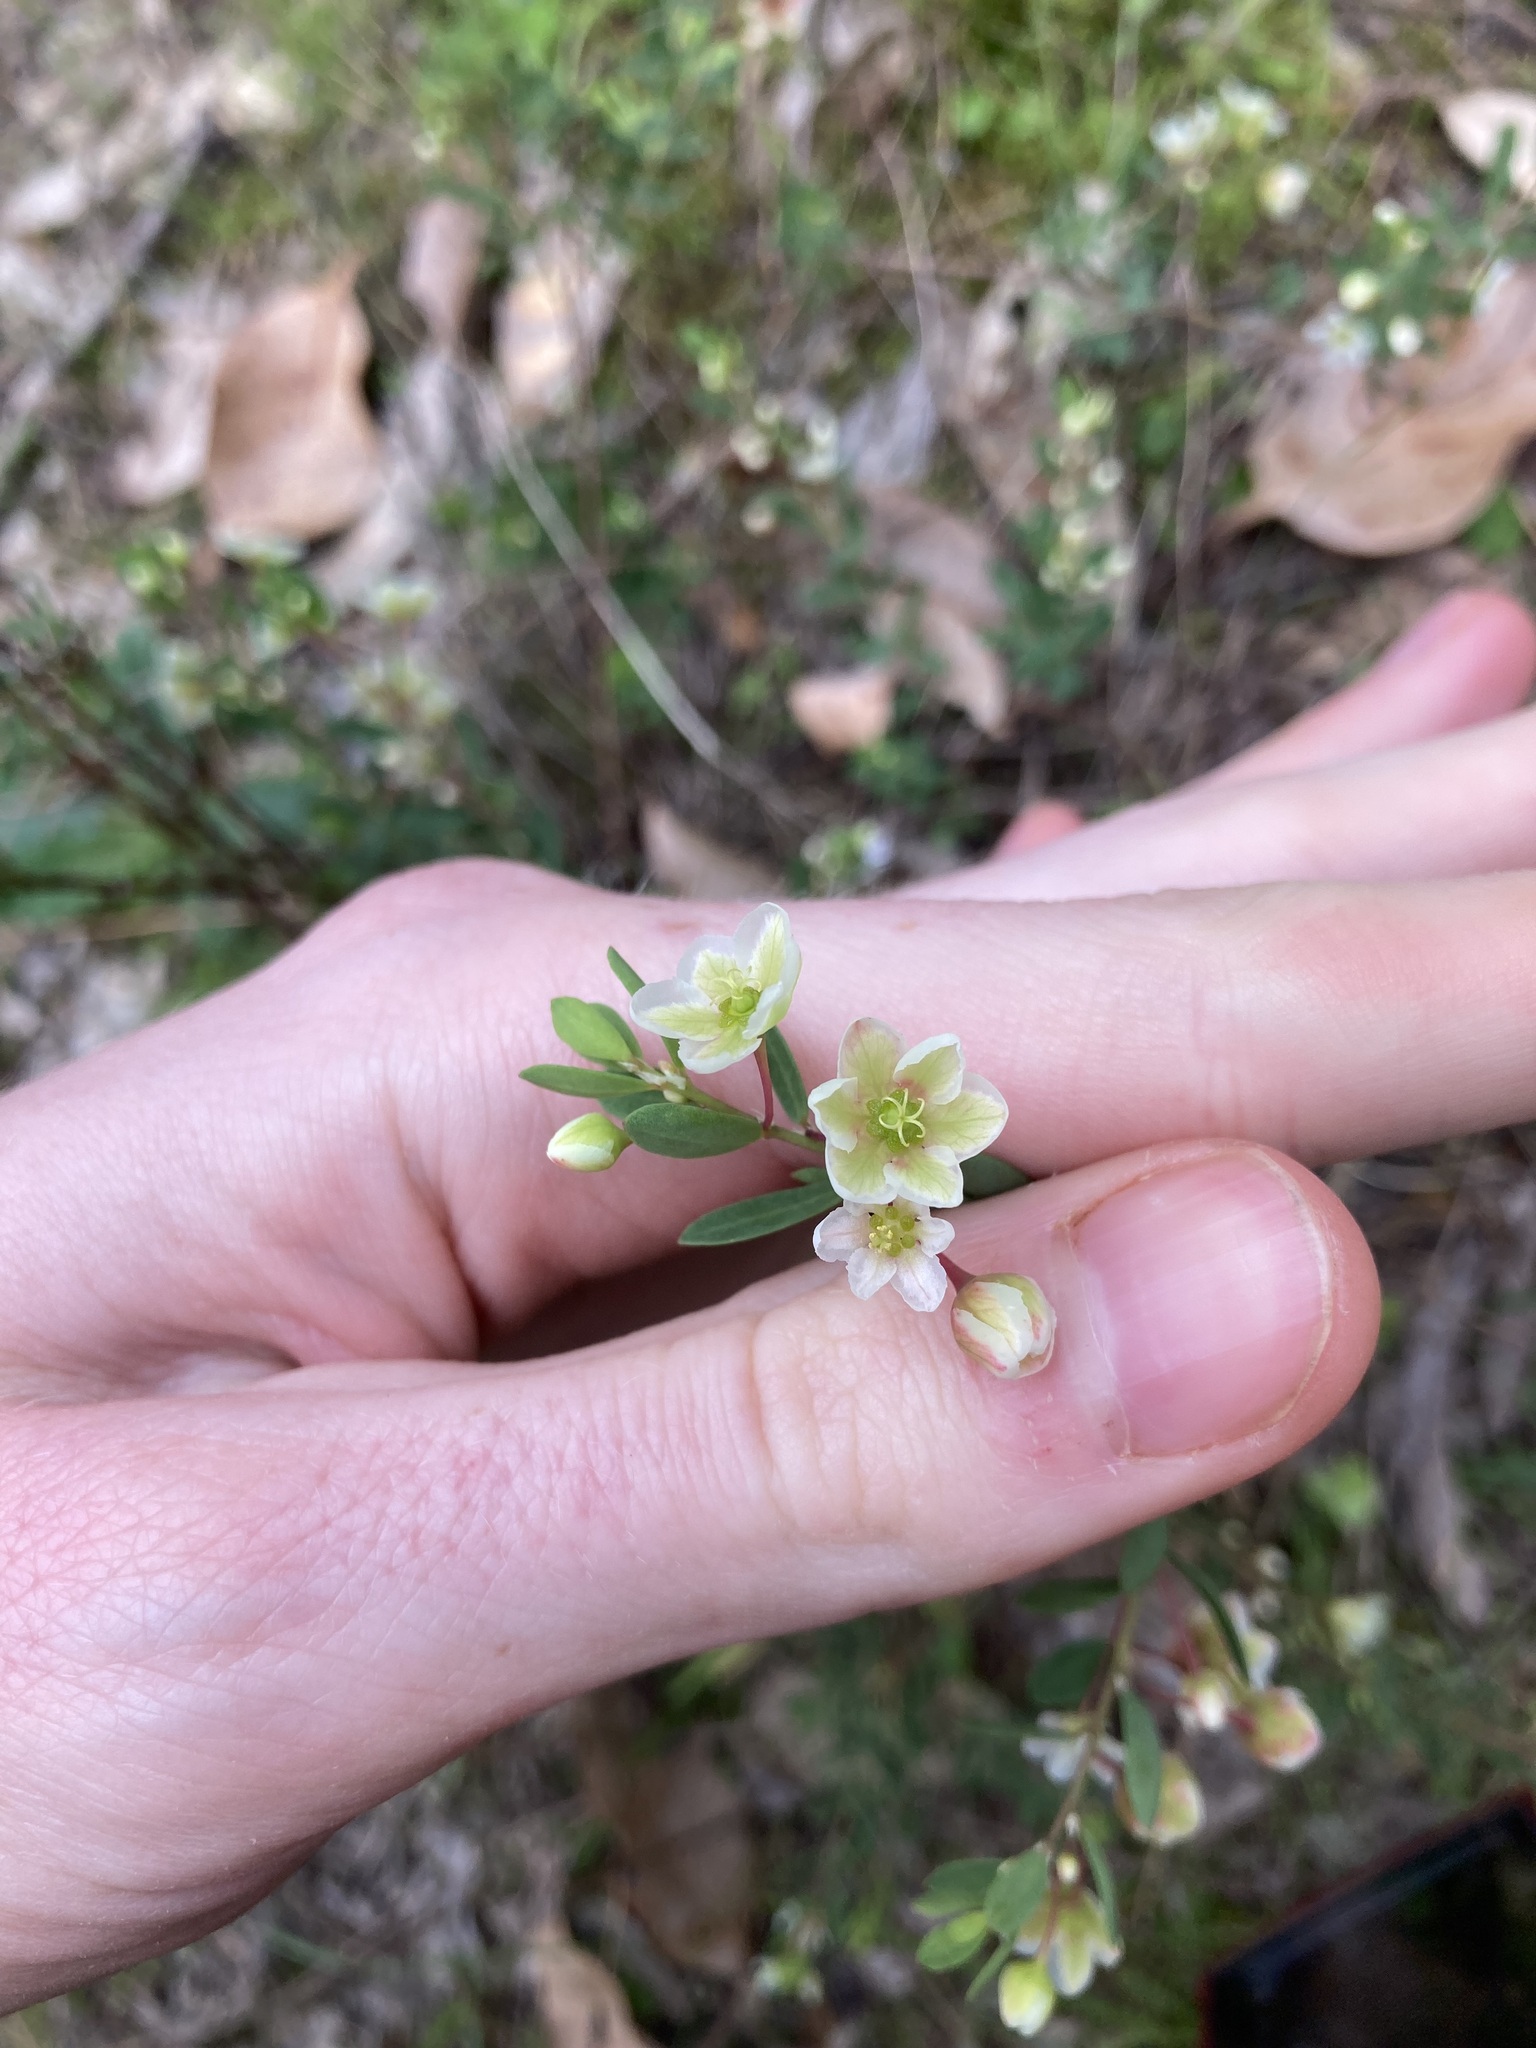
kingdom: Plantae
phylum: Tracheophyta
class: Magnoliopsida
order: Malpighiales
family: Phyllanthaceae
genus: Phyllanthus
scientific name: Phyllanthus calycinus
